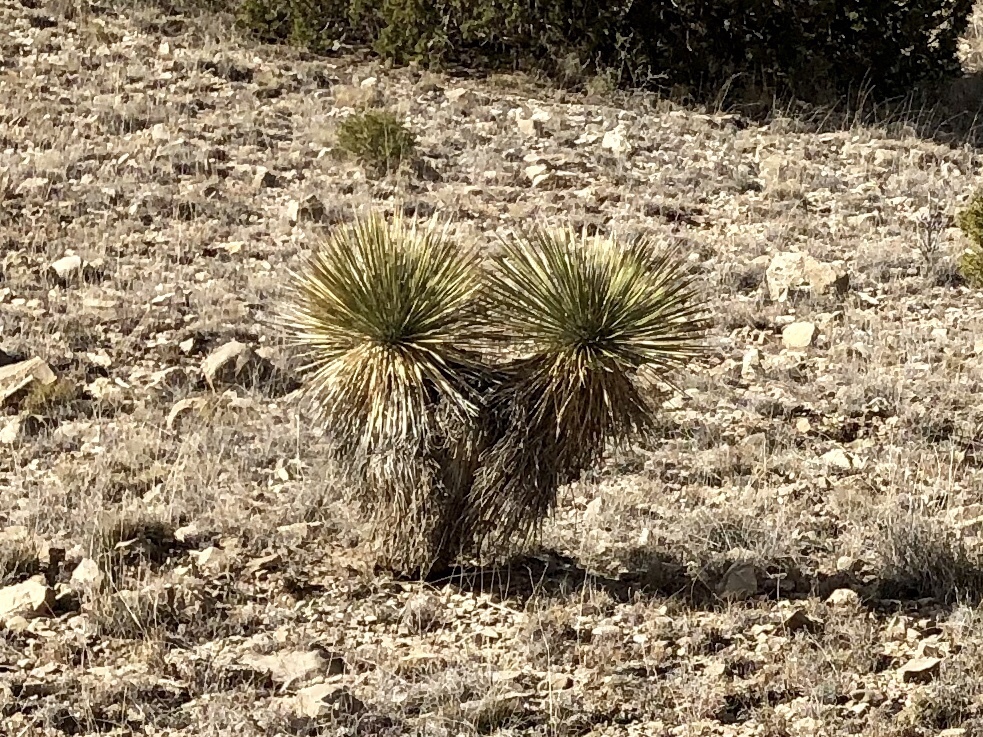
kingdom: Plantae
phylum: Tracheophyta
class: Liliopsida
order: Asparagales
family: Asparagaceae
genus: Yucca
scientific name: Yucca elata
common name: Palmella
